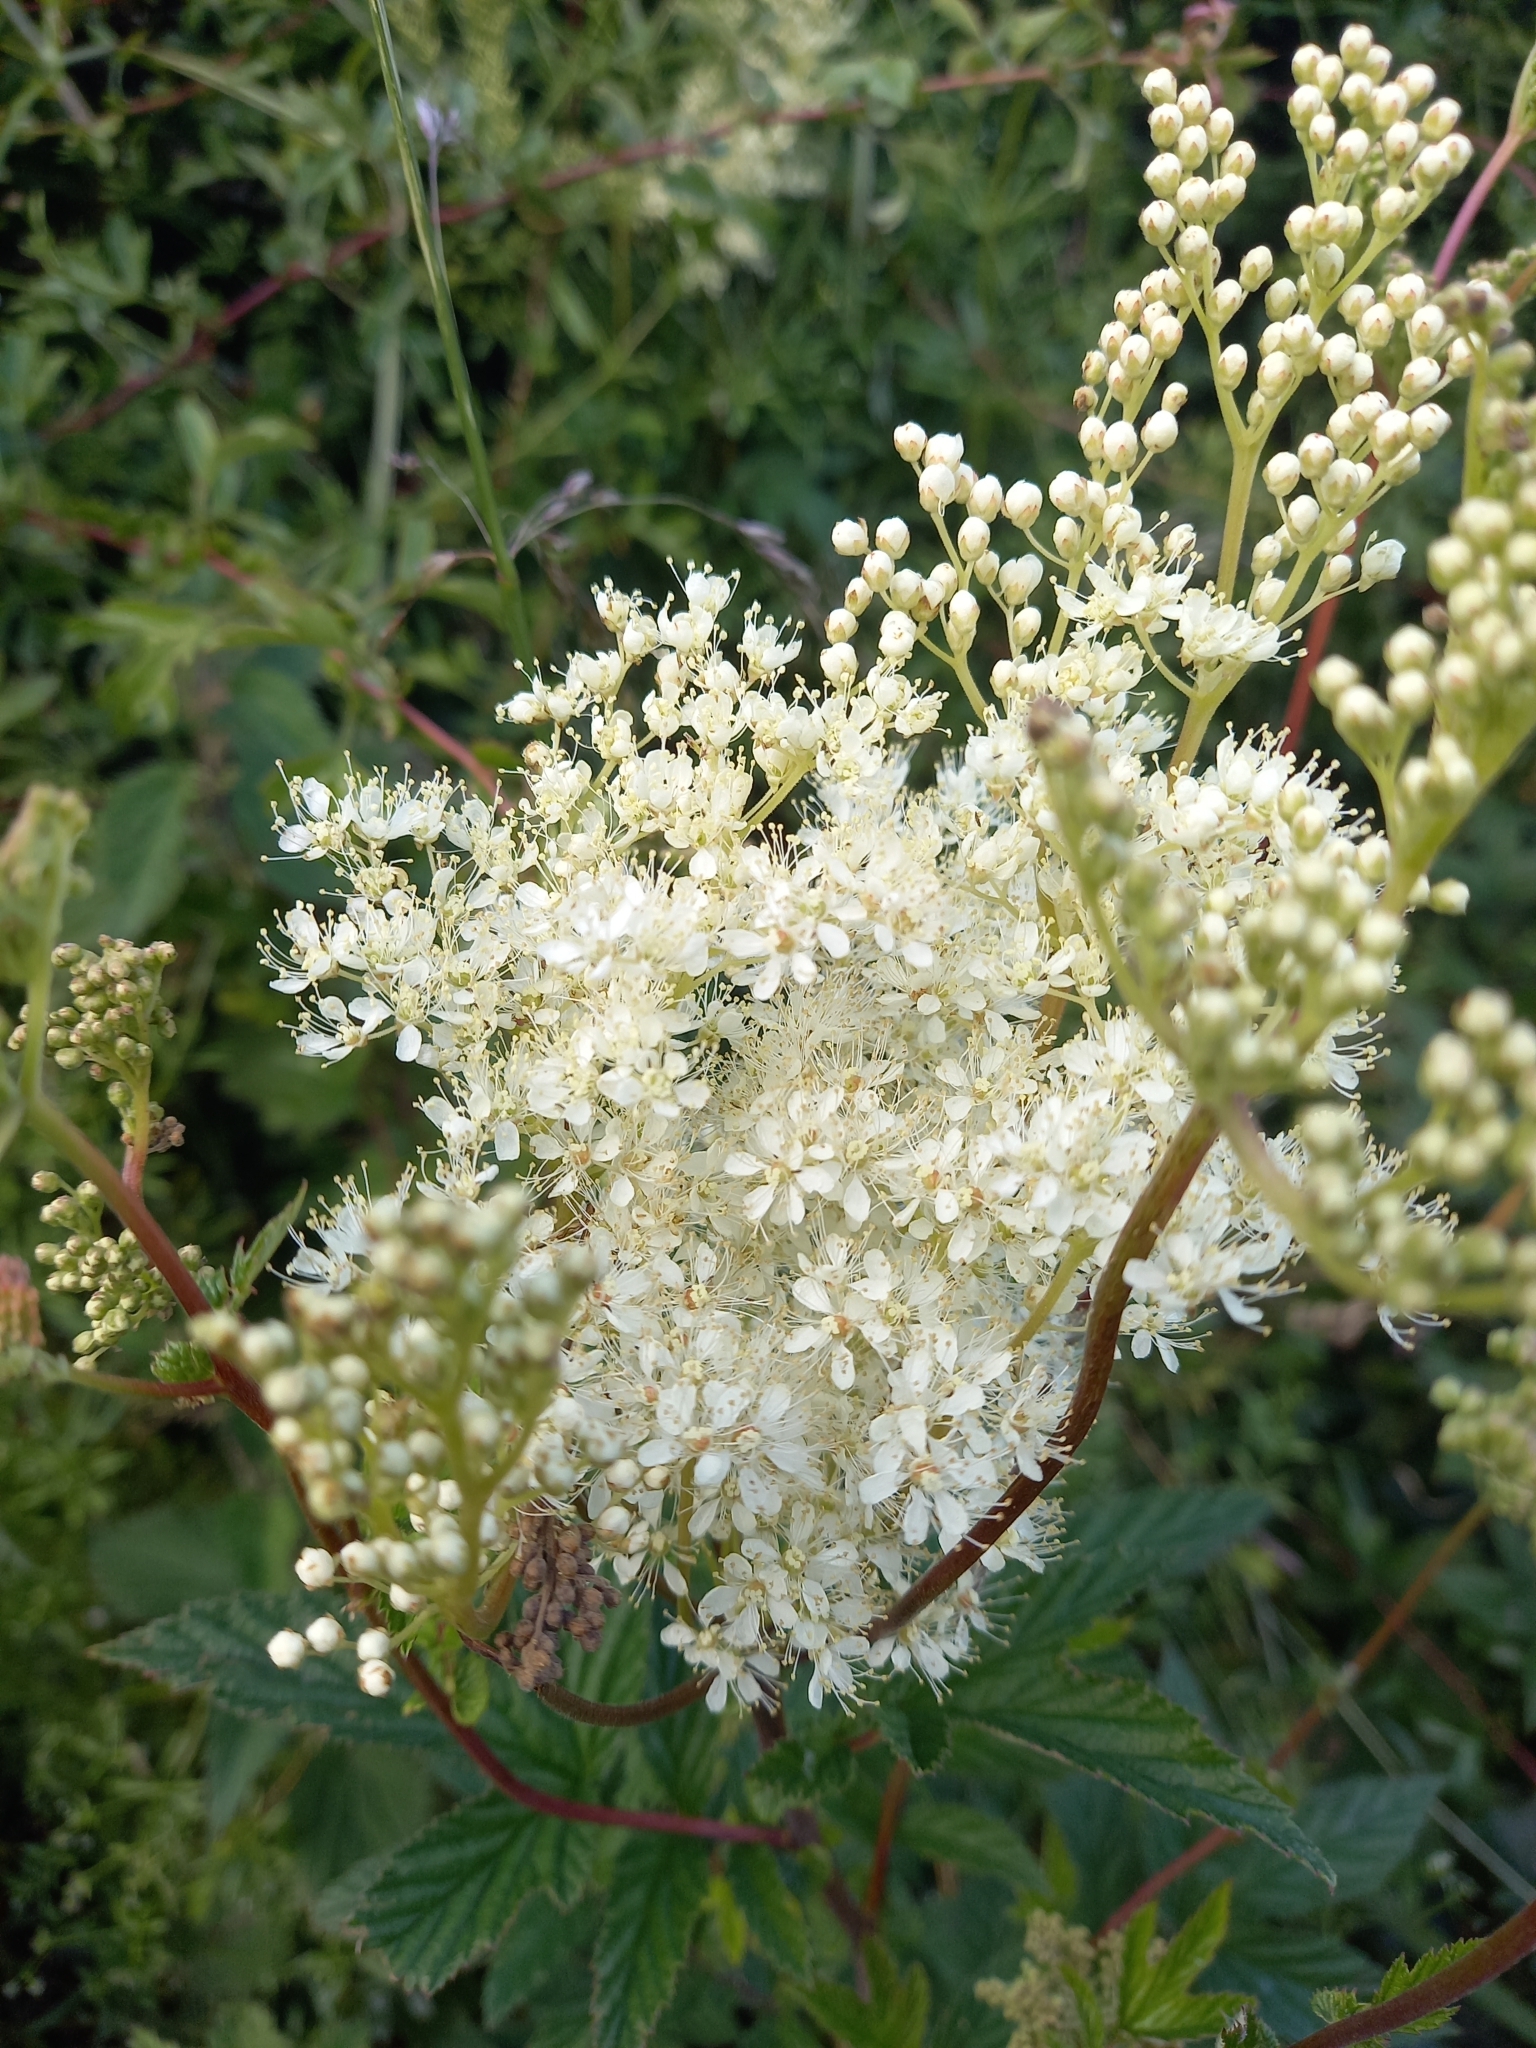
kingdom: Plantae
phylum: Tracheophyta
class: Magnoliopsida
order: Rosales
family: Rosaceae
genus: Filipendula
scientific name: Filipendula ulmaria
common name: Meadowsweet
